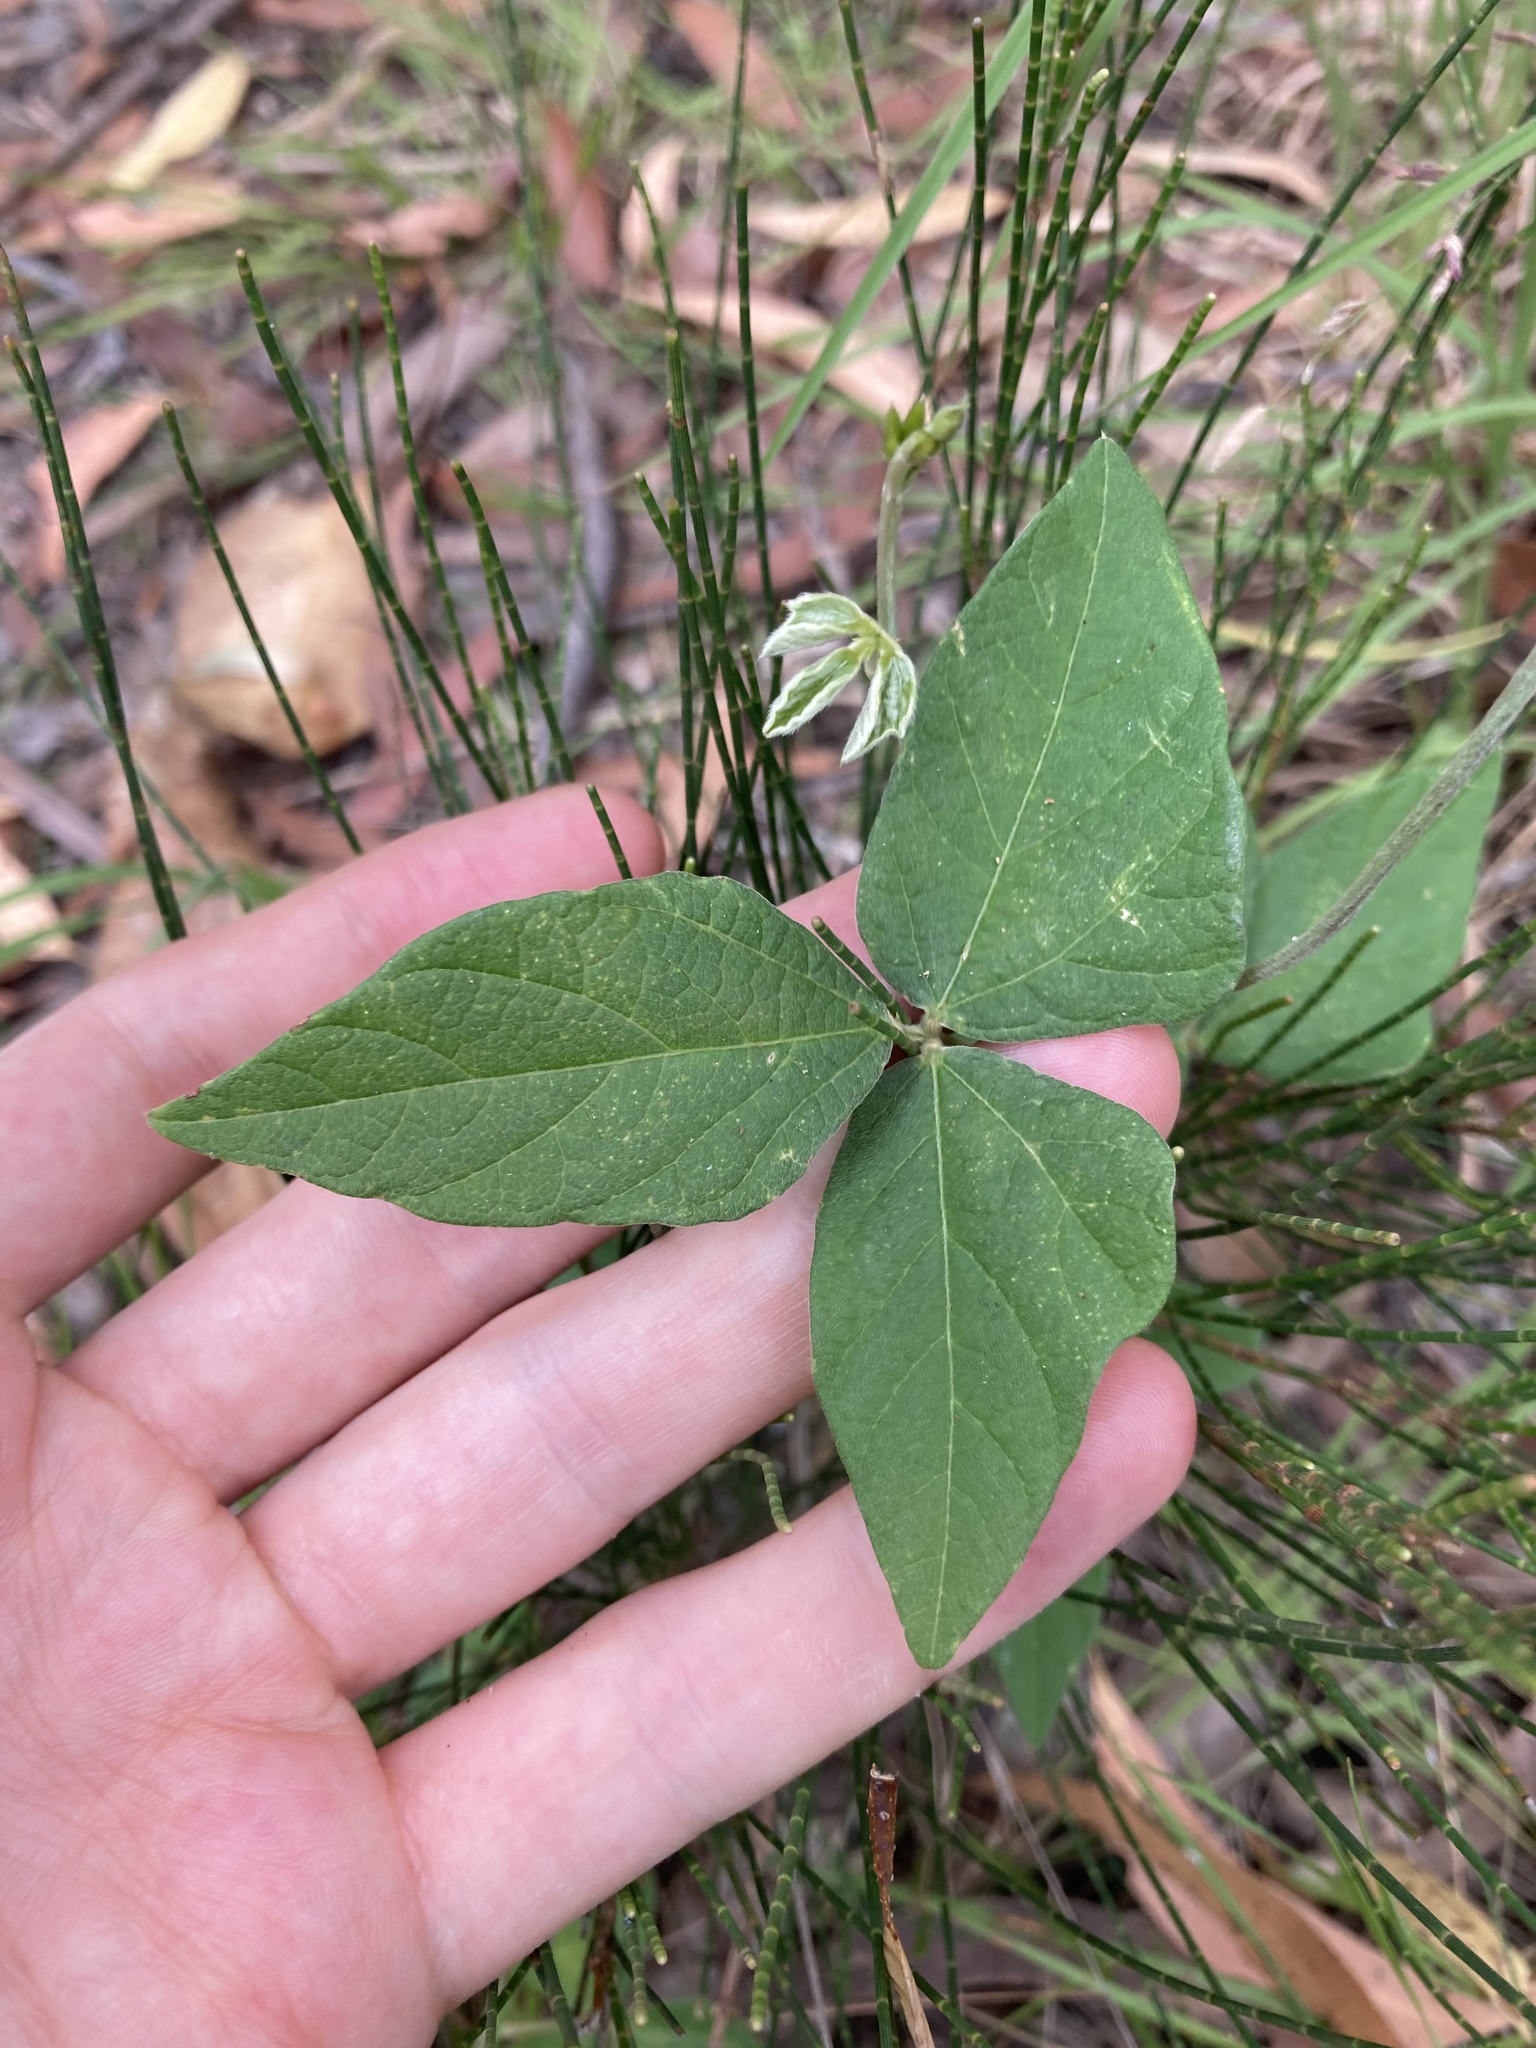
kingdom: Plantae
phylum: Tracheophyta
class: Magnoliopsida
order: Fabales
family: Fabaceae
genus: Macroptilium
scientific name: Macroptilium atropurpureum
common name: Purple bushbean
